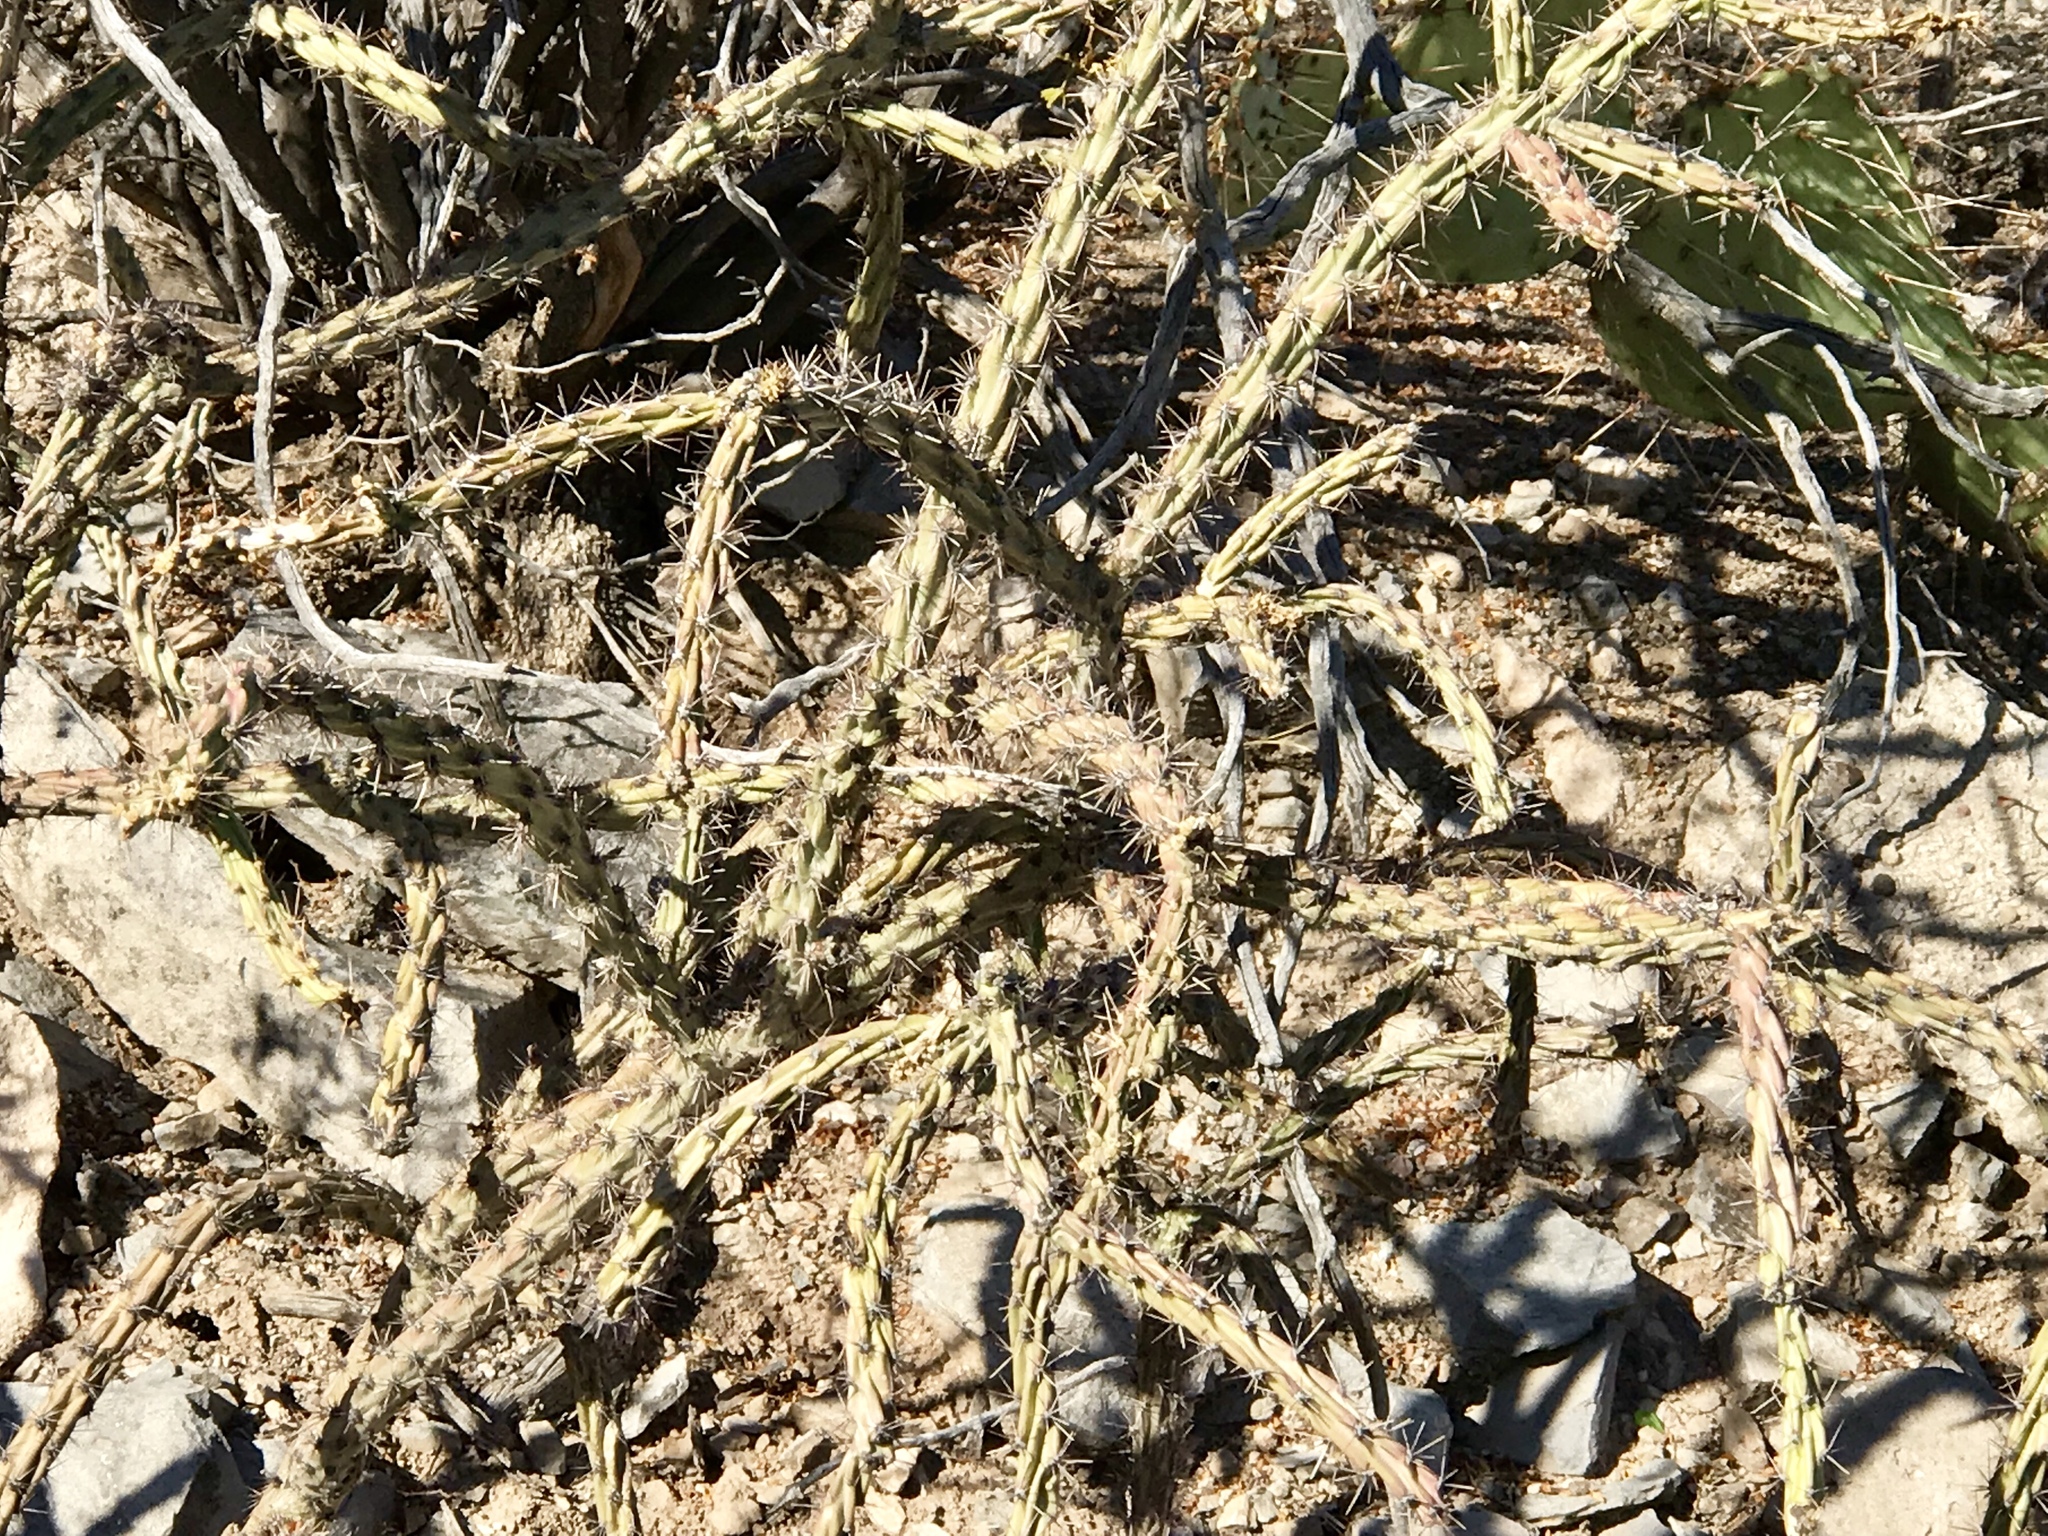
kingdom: Plantae
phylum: Tracheophyta
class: Magnoliopsida
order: Caryophyllales
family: Cactaceae
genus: Cylindropuntia
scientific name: Cylindropuntia acanthocarpa
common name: Buckhorn cholla
